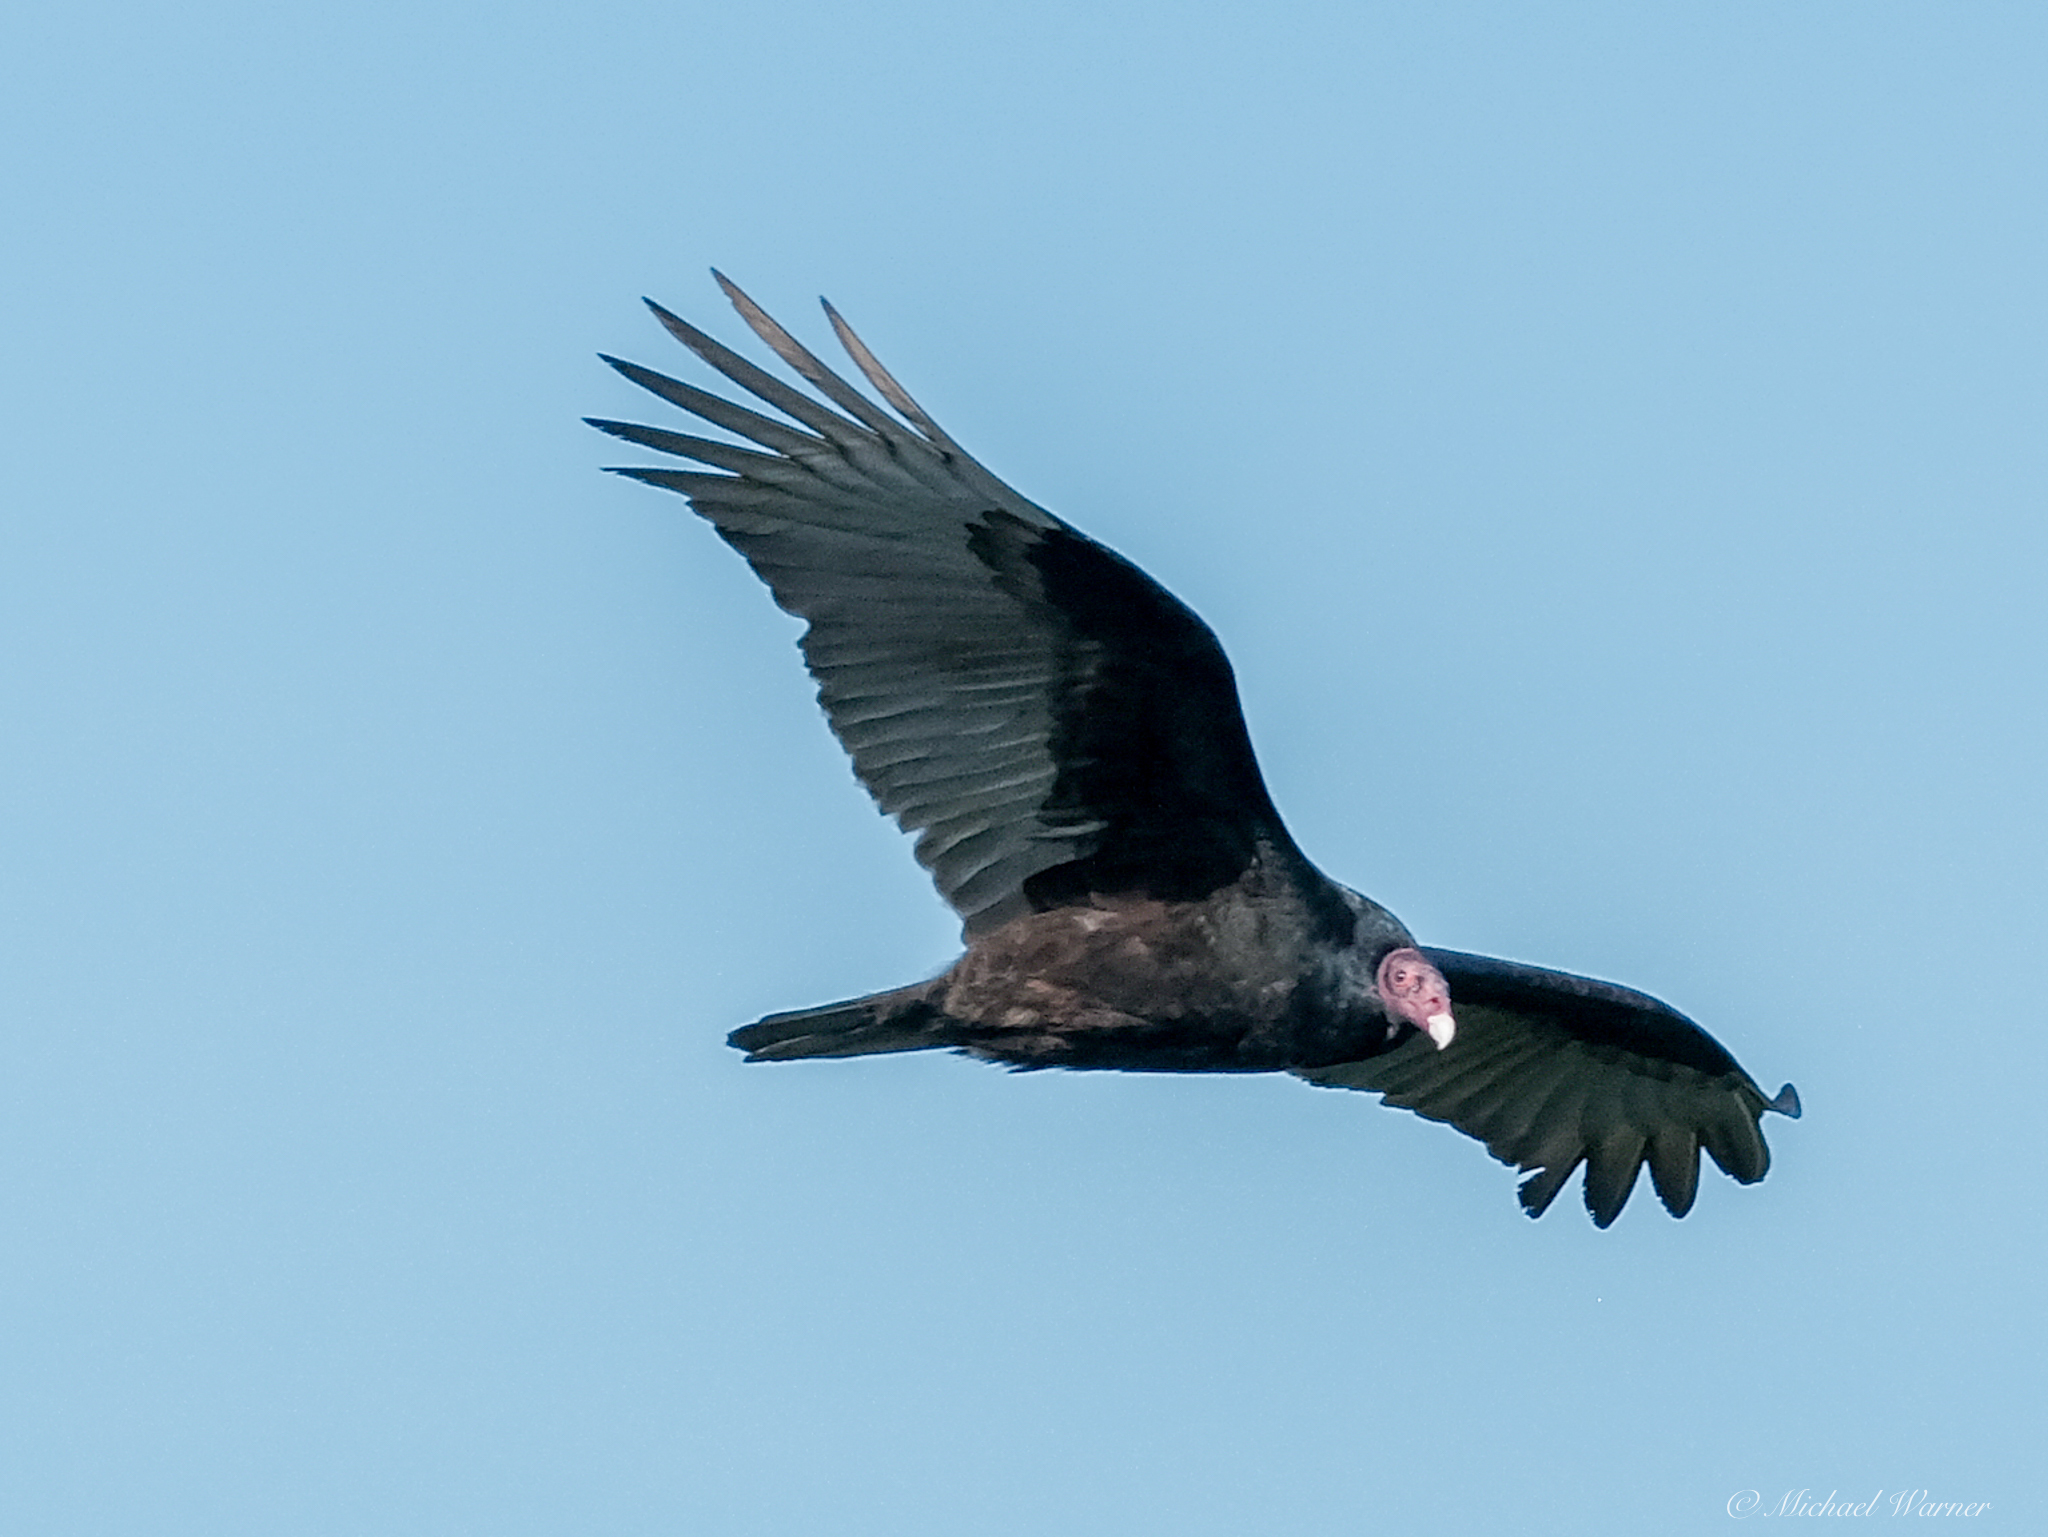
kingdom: Animalia
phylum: Chordata
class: Aves
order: Accipitriformes
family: Cathartidae
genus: Cathartes
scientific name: Cathartes aura
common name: Turkey vulture
